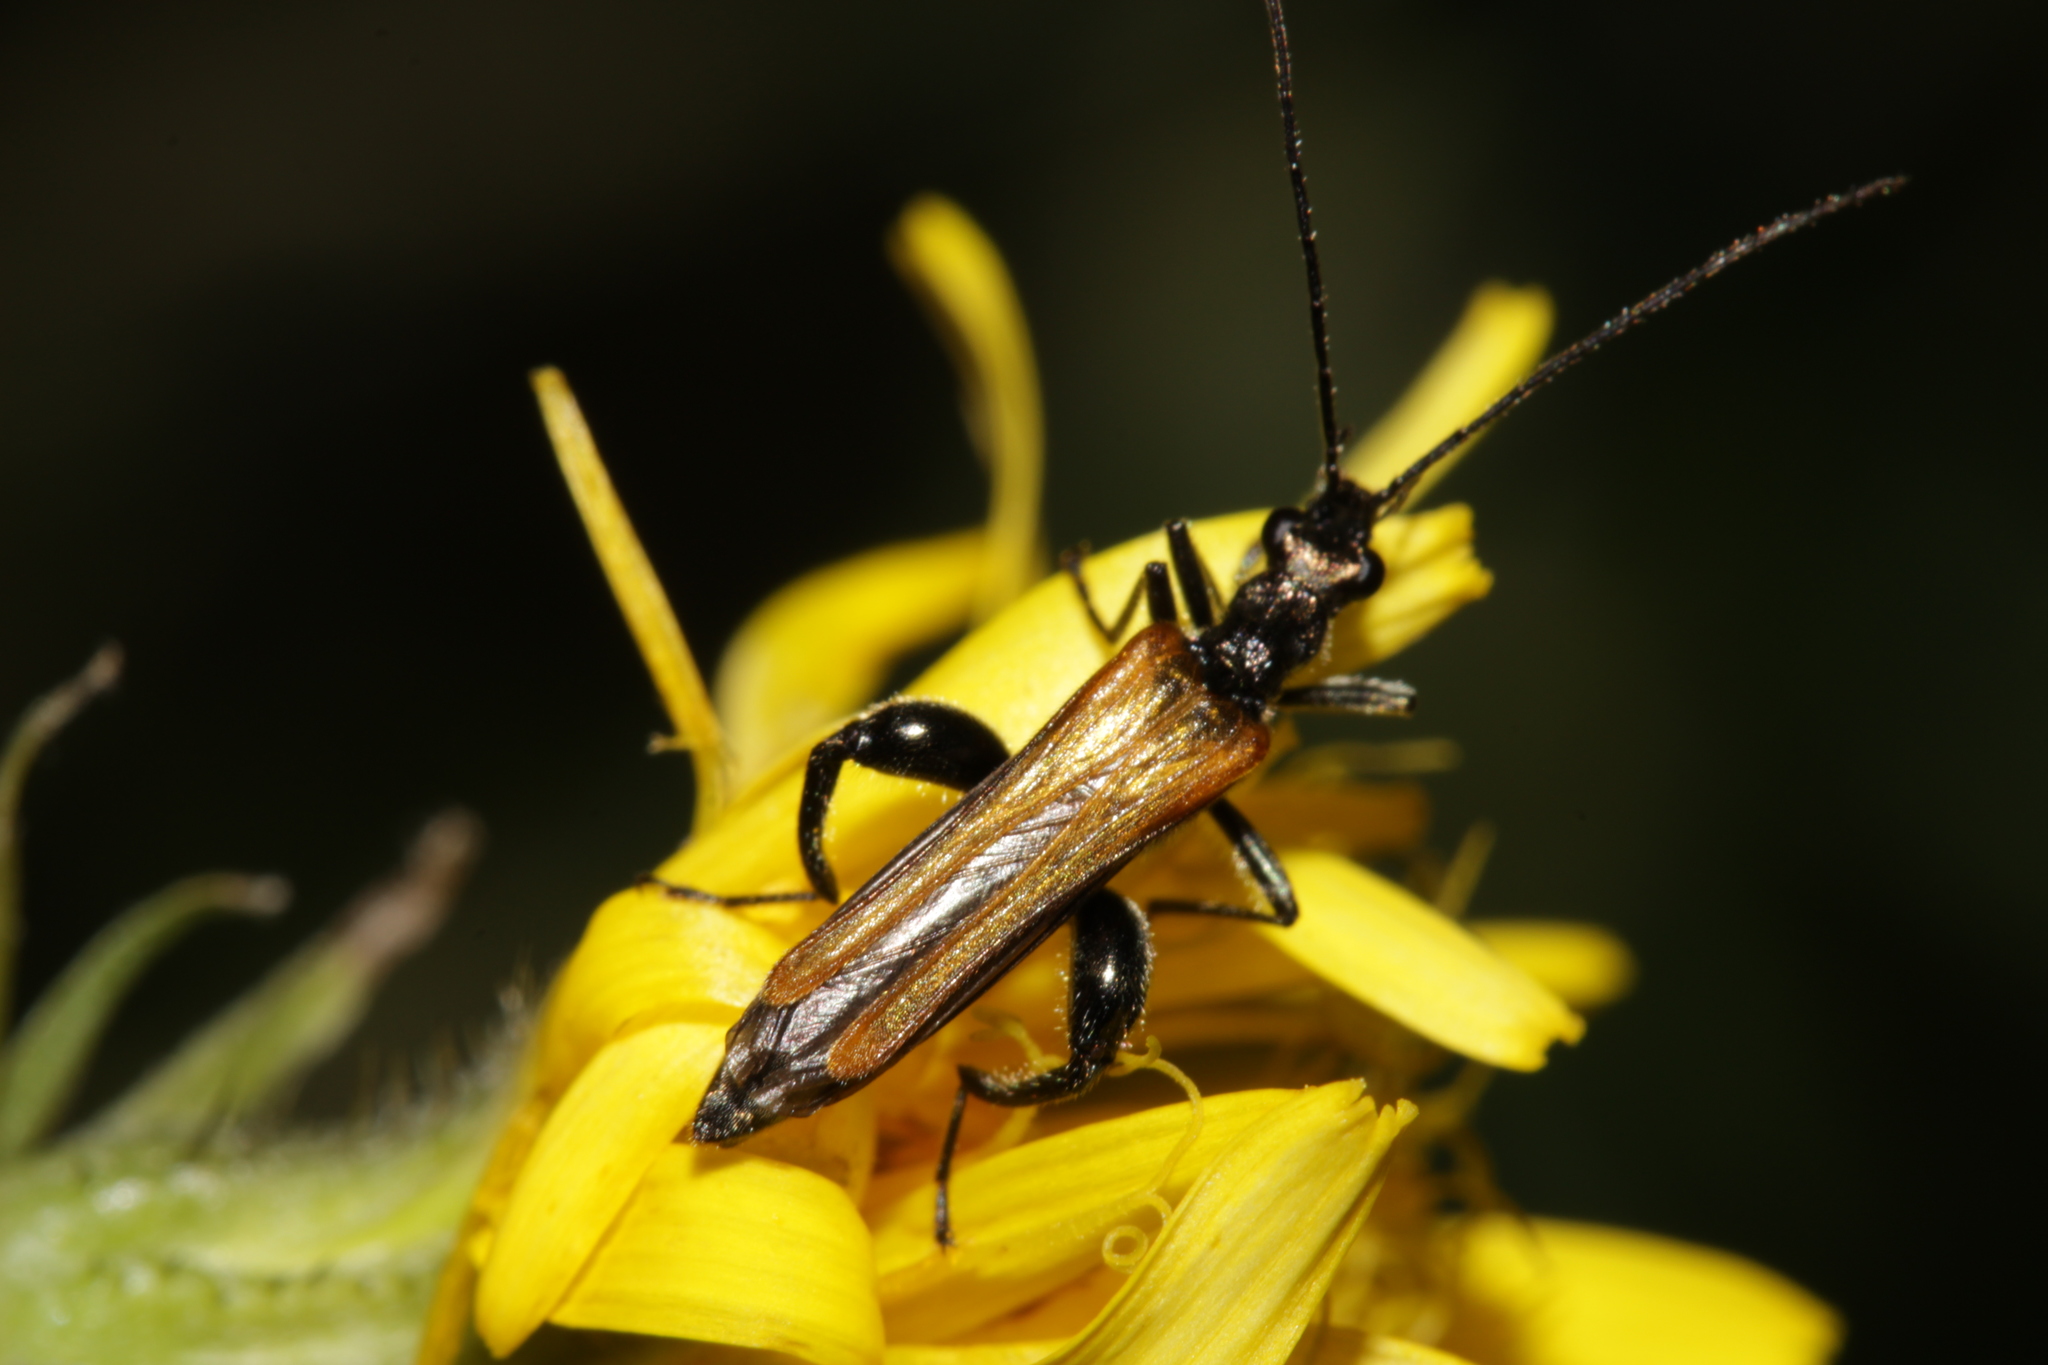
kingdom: Animalia
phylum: Arthropoda
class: Insecta
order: Coleoptera
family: Oedemeridae
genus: Oedemera
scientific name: Oedemera femorata
